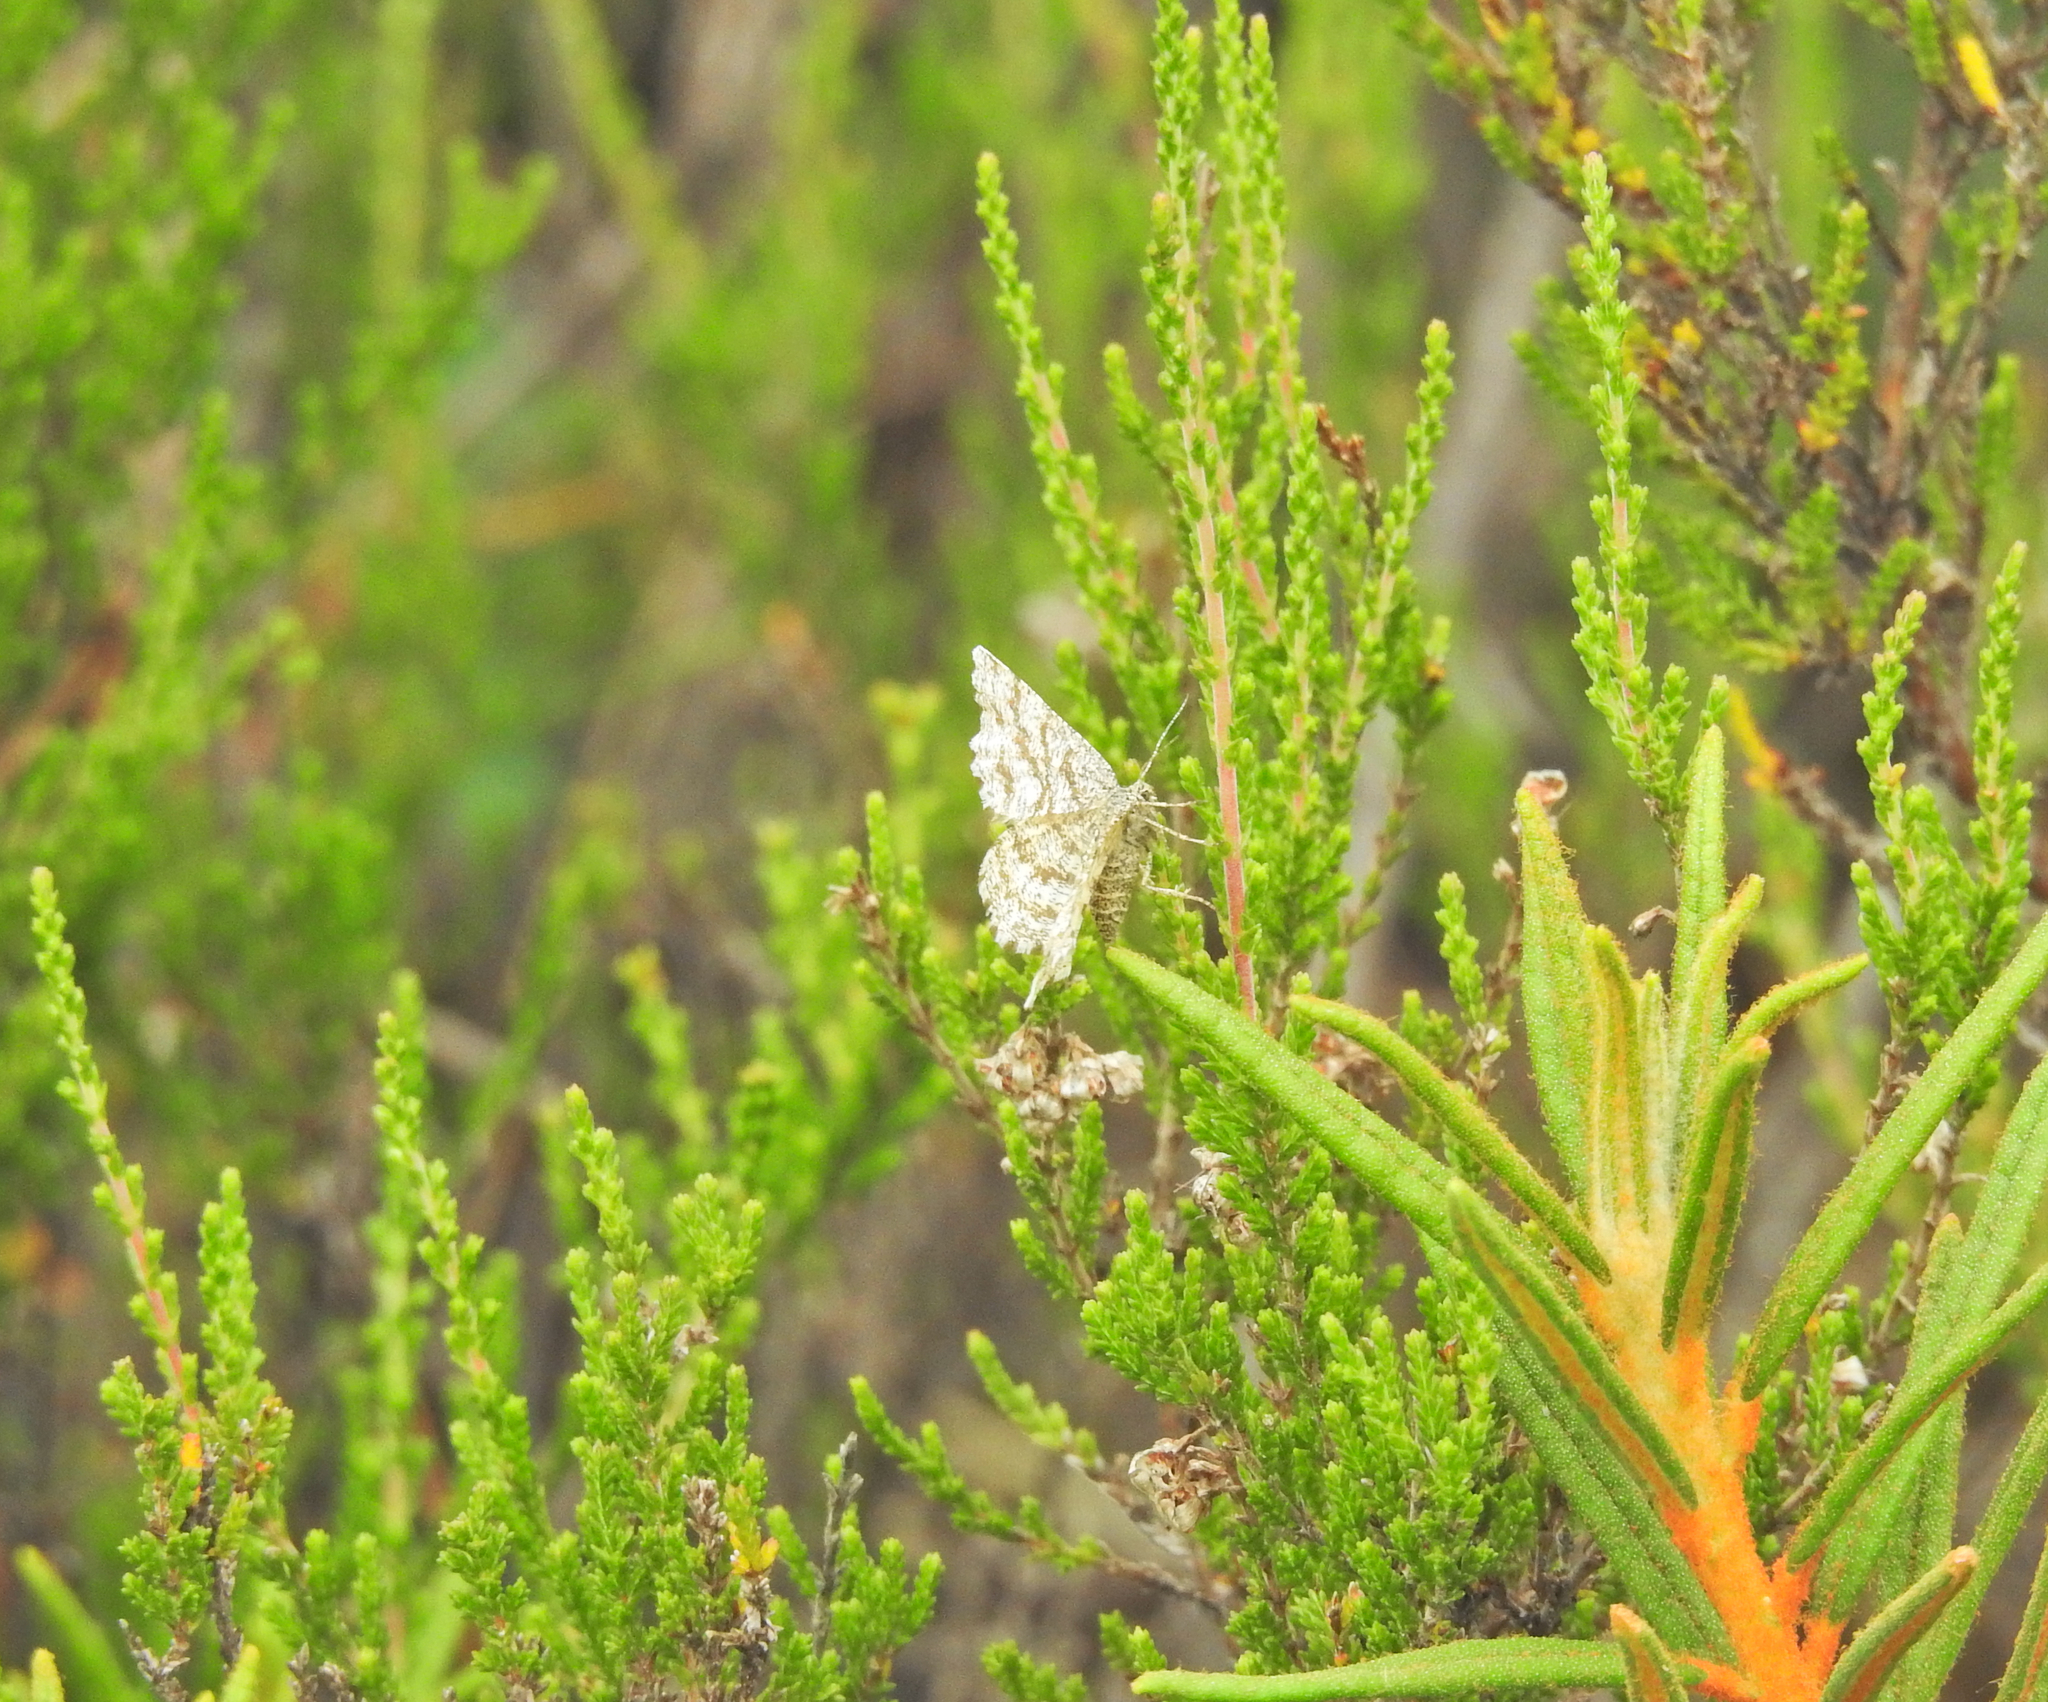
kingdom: Animalia
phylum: Arthropoda
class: Insecta
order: Lepidoptera
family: Geometridae
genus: Ematurga
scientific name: Ematurga atomaria
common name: Common heath
